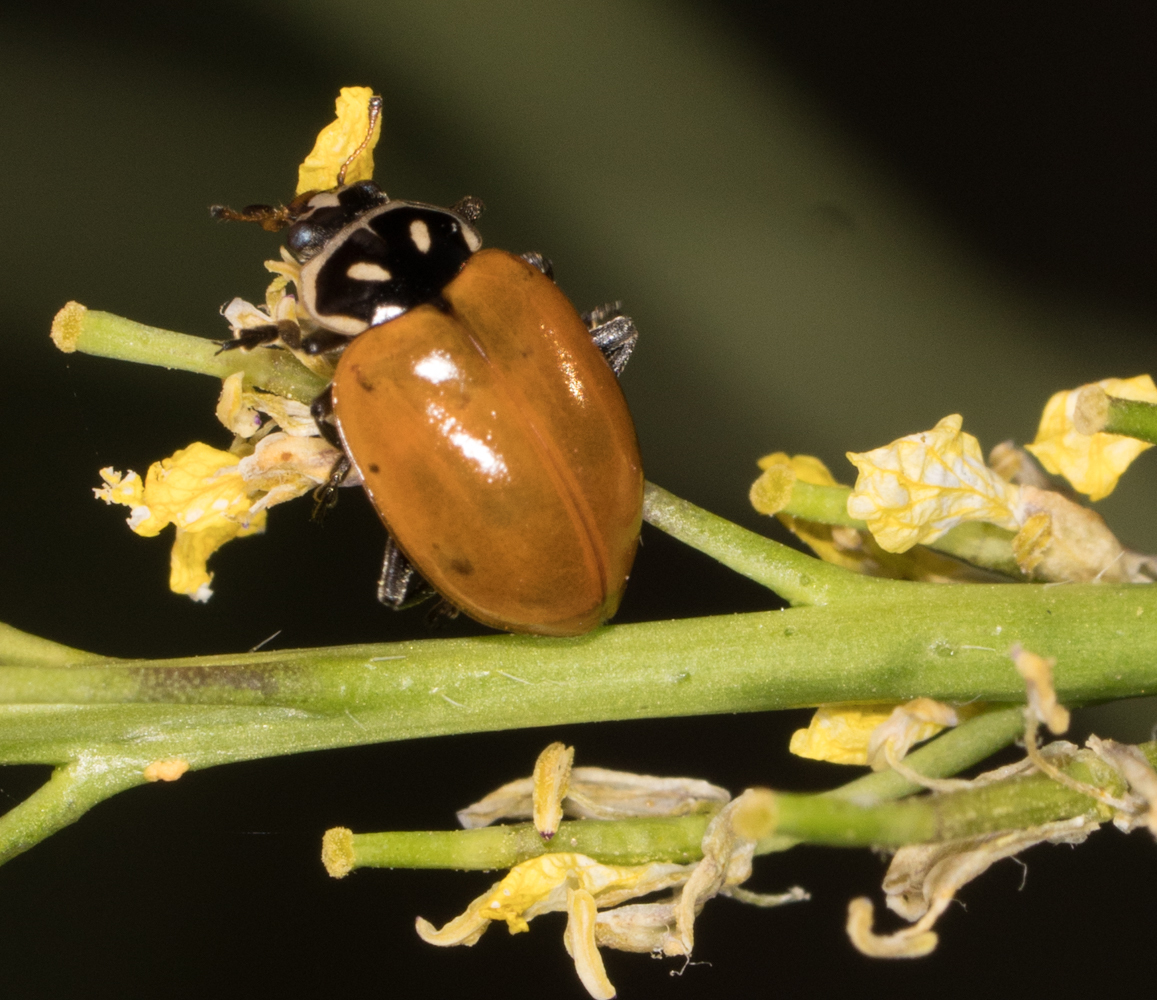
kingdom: Animalia
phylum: Arthropoda
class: Insecta
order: Coleoptera
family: Coccinellidae
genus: Hippodamia
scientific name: Hippodamia convergens
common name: Convergent lady beetle
